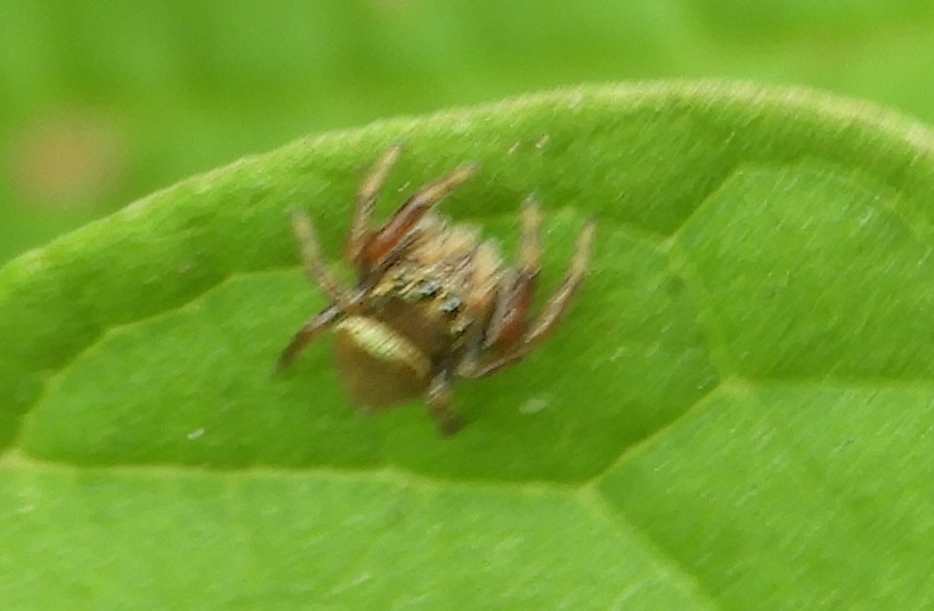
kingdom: Animalia
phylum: Arthropoda
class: Arachnida
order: Araneae
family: Salticidae
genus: Messua
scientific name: Messua limbata
